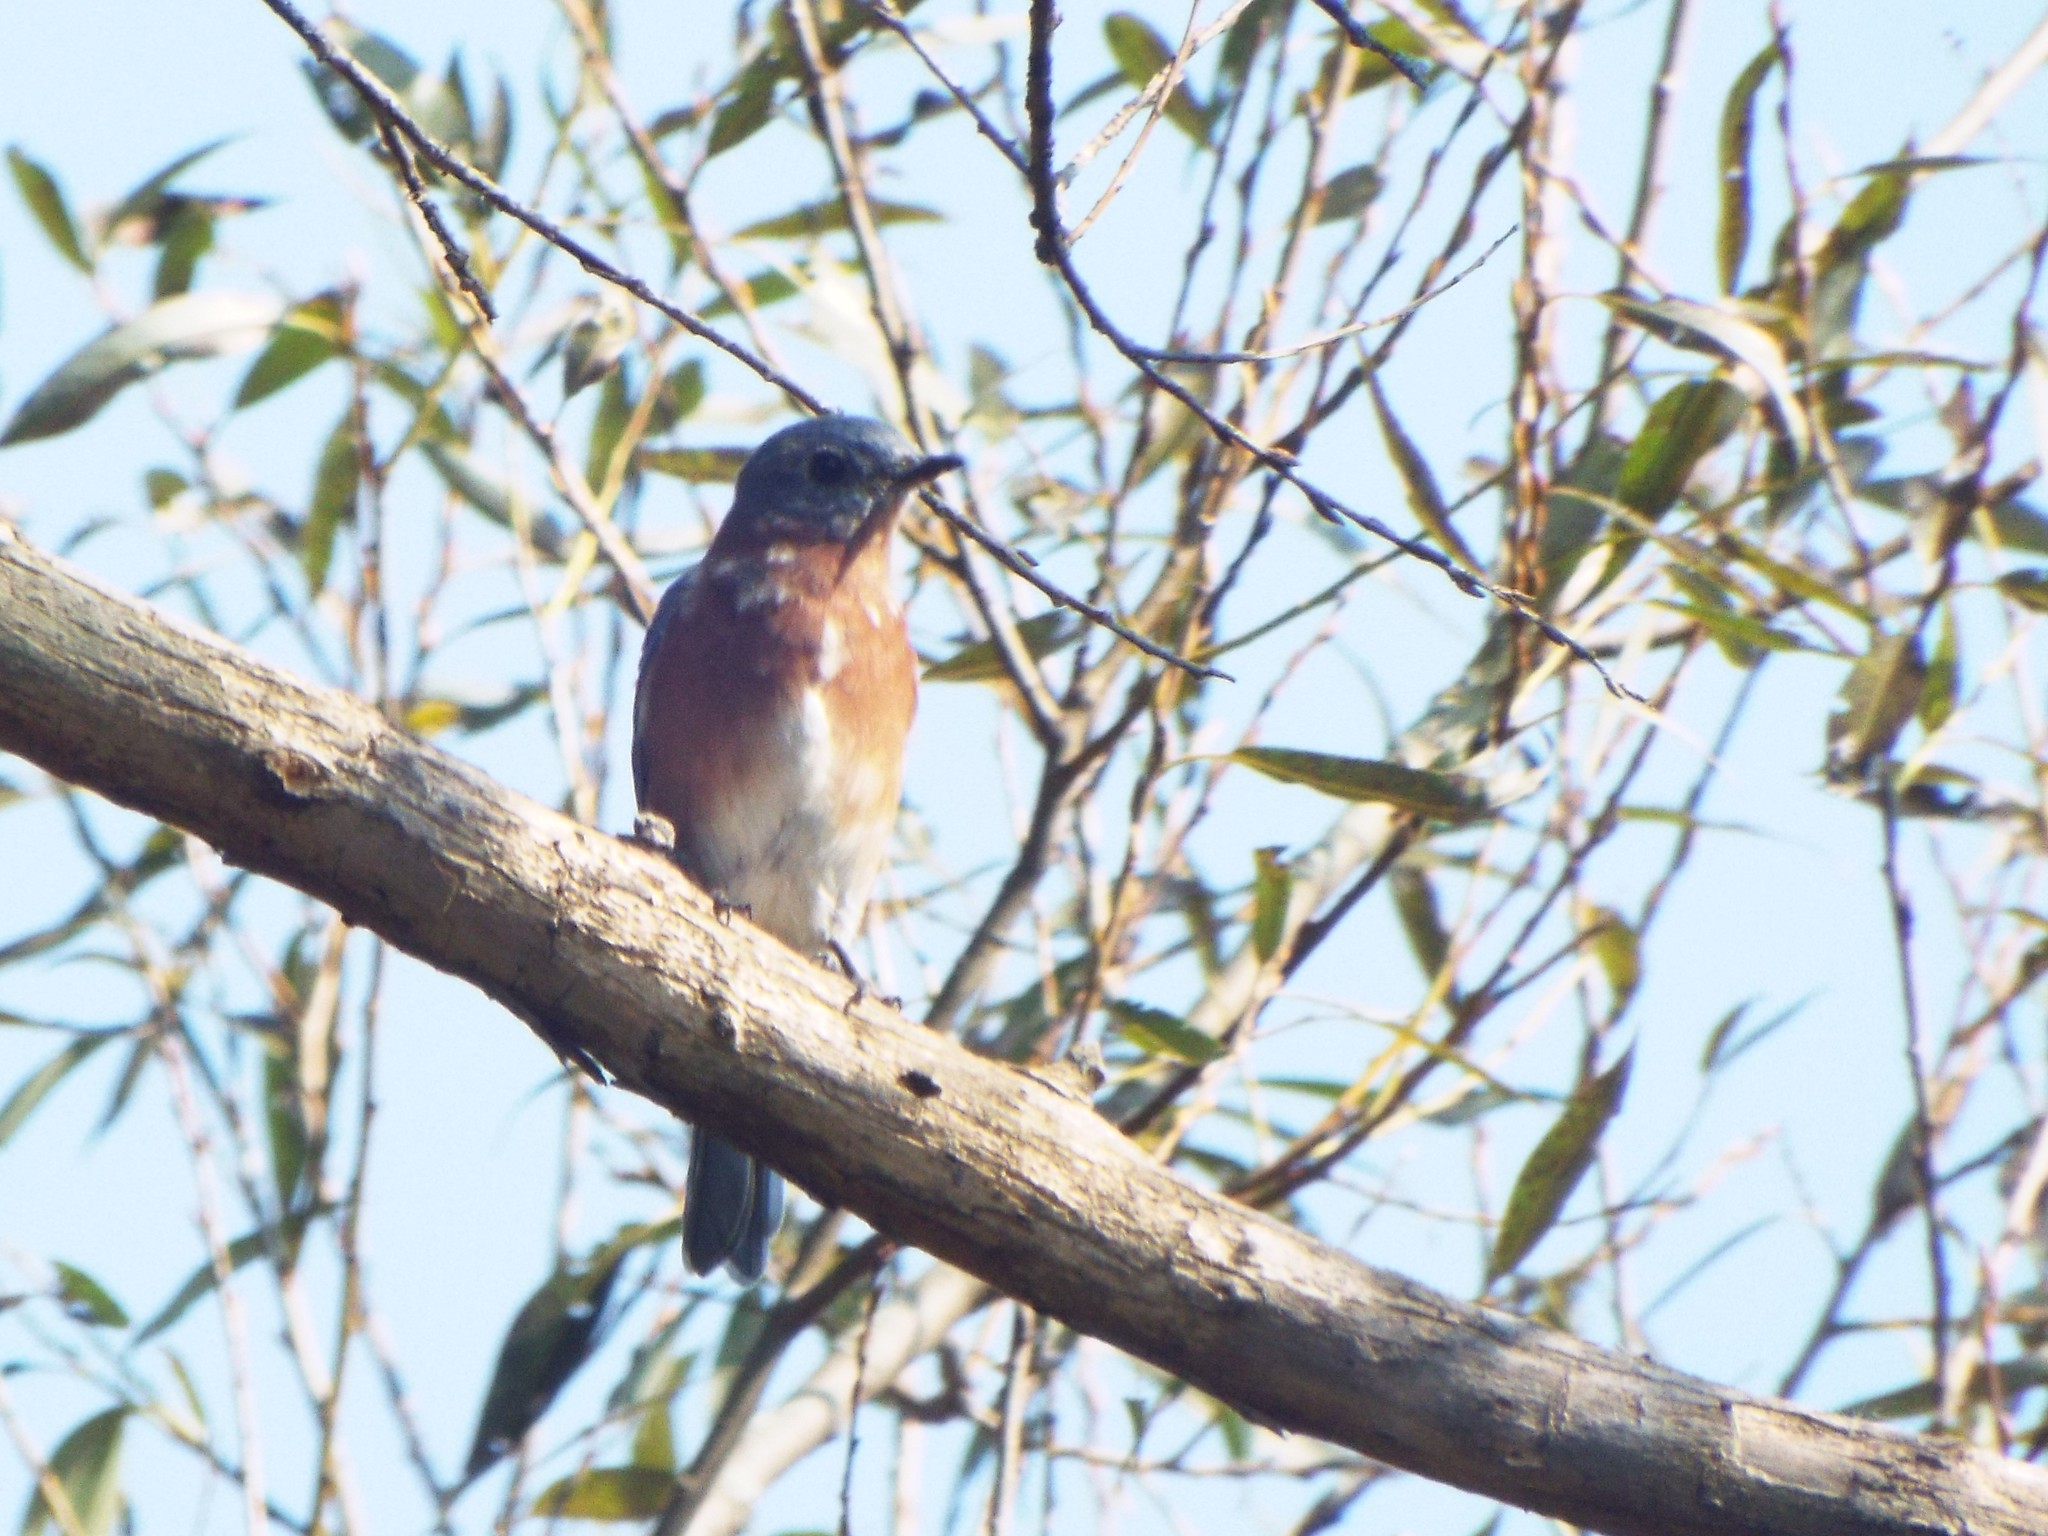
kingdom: Animalia
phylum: Chordata
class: Aves
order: Passeriformes
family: Turdidae
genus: Sialia
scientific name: Sialia sialis
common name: Eastern bluebird
